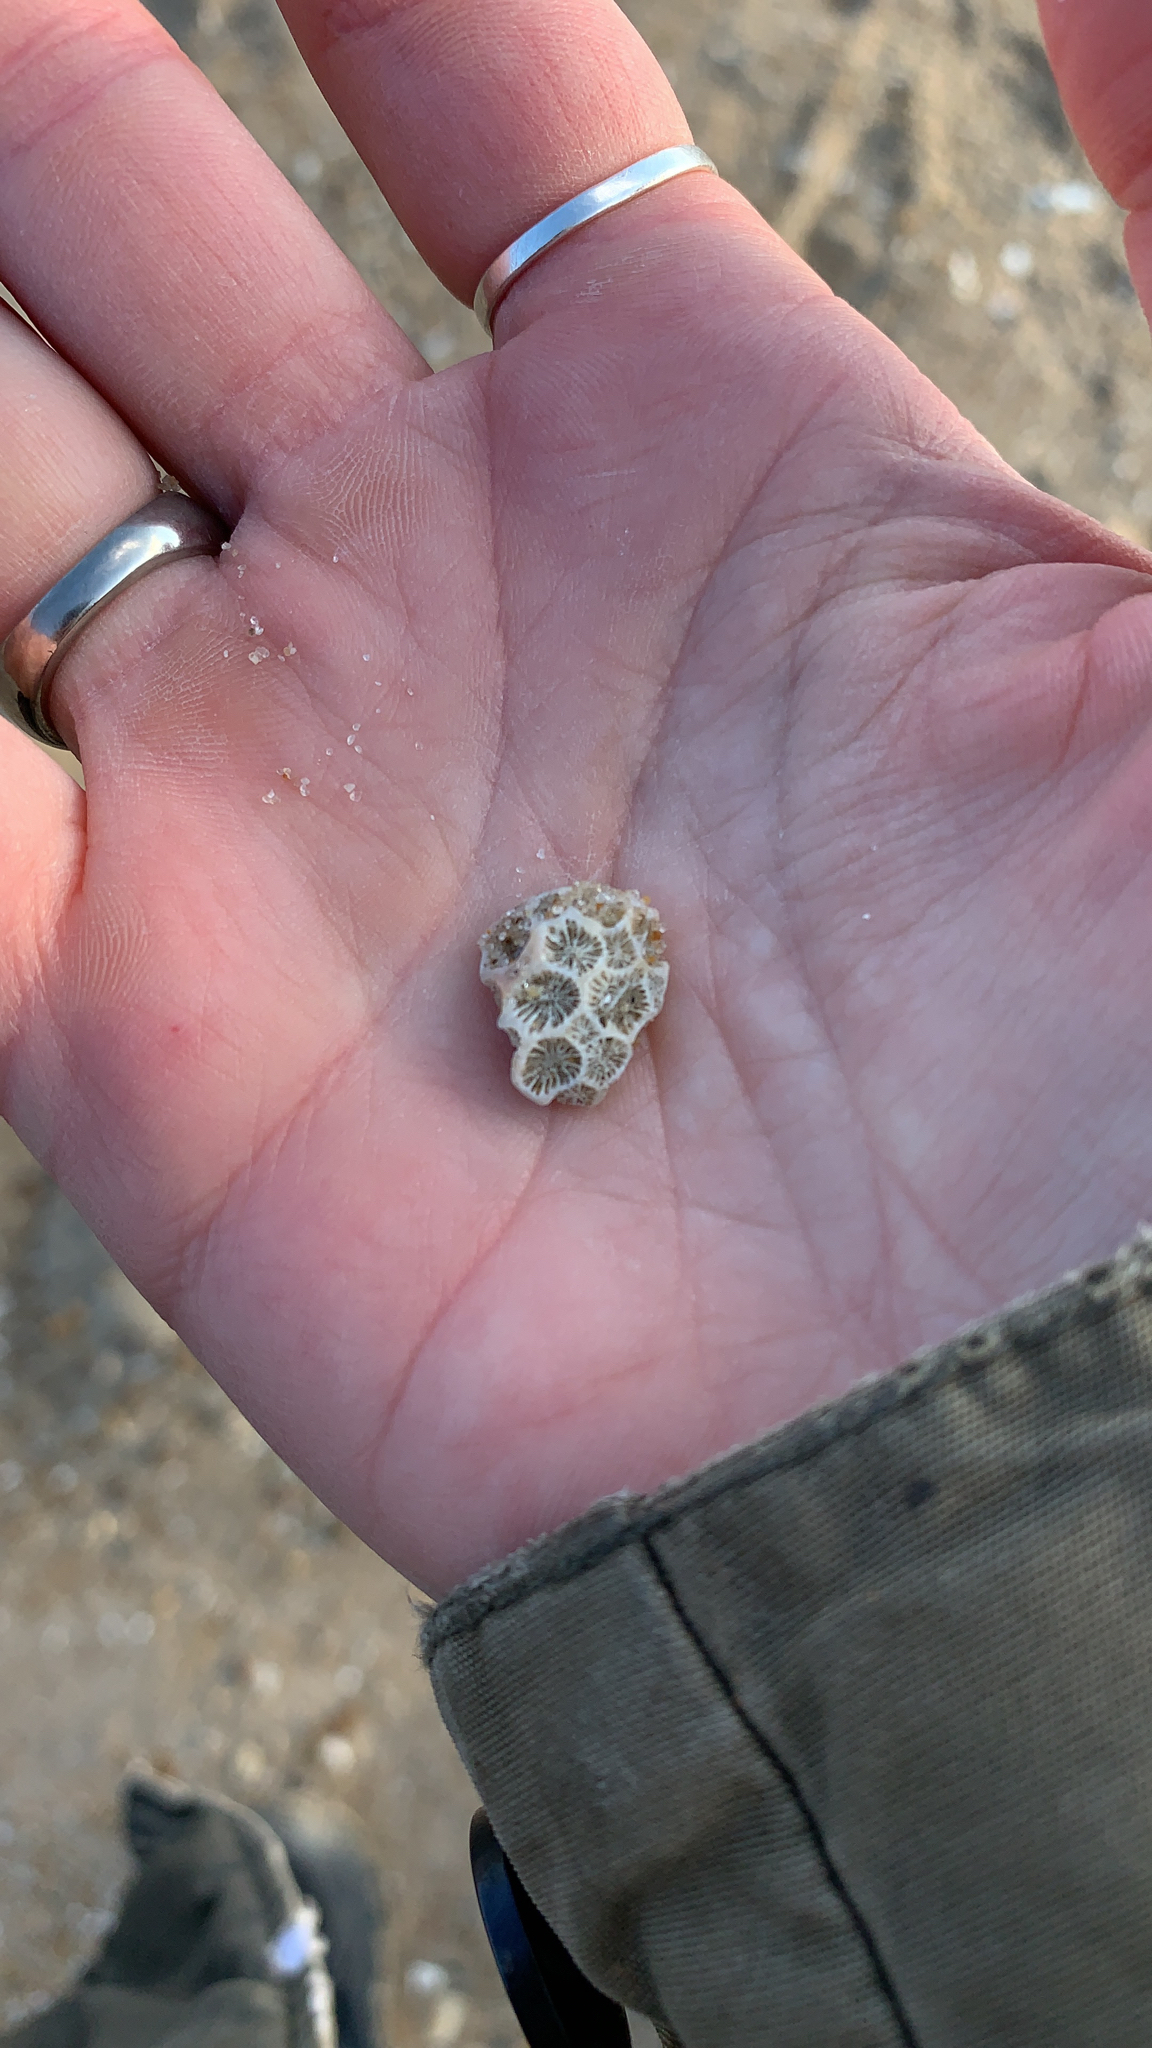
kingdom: Animalia
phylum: Cnidaria
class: Anthozoa
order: Scleractinia
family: Astrangiidae
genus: Astrangia
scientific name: Astrangia poculata
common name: Northern star coral
